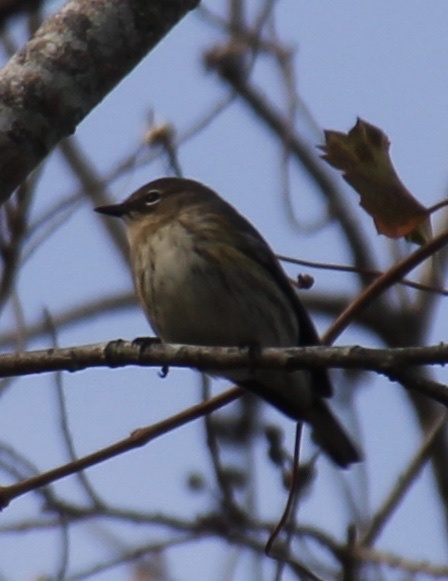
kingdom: Animalia
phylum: Chordata
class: Aves
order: Passeriformes
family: Parulidae
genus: Setophaga
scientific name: Setophaga coronata
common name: Myrtle warbler
